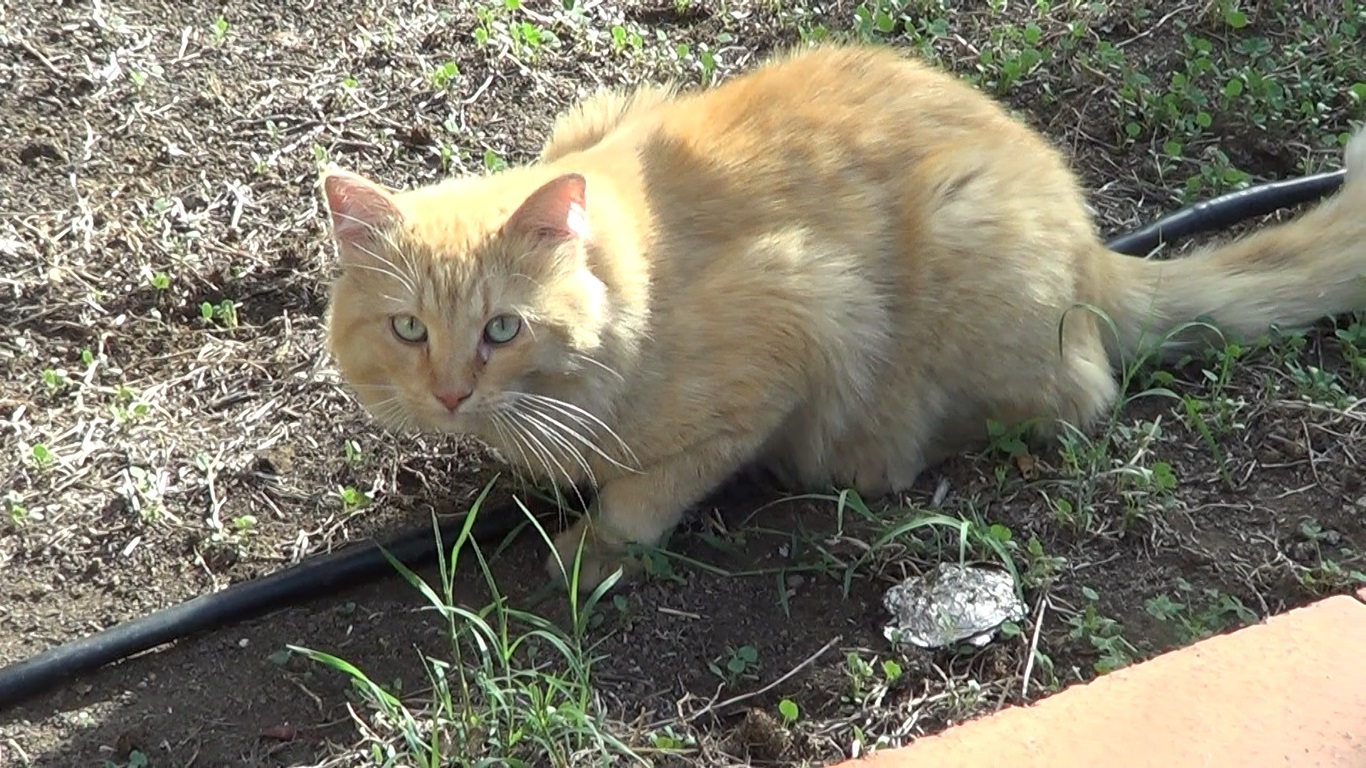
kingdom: Animalia
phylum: Chordata
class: Mammalia
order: Carnivora
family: Felidae
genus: Felis
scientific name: Felis catus
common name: Domestic cat
